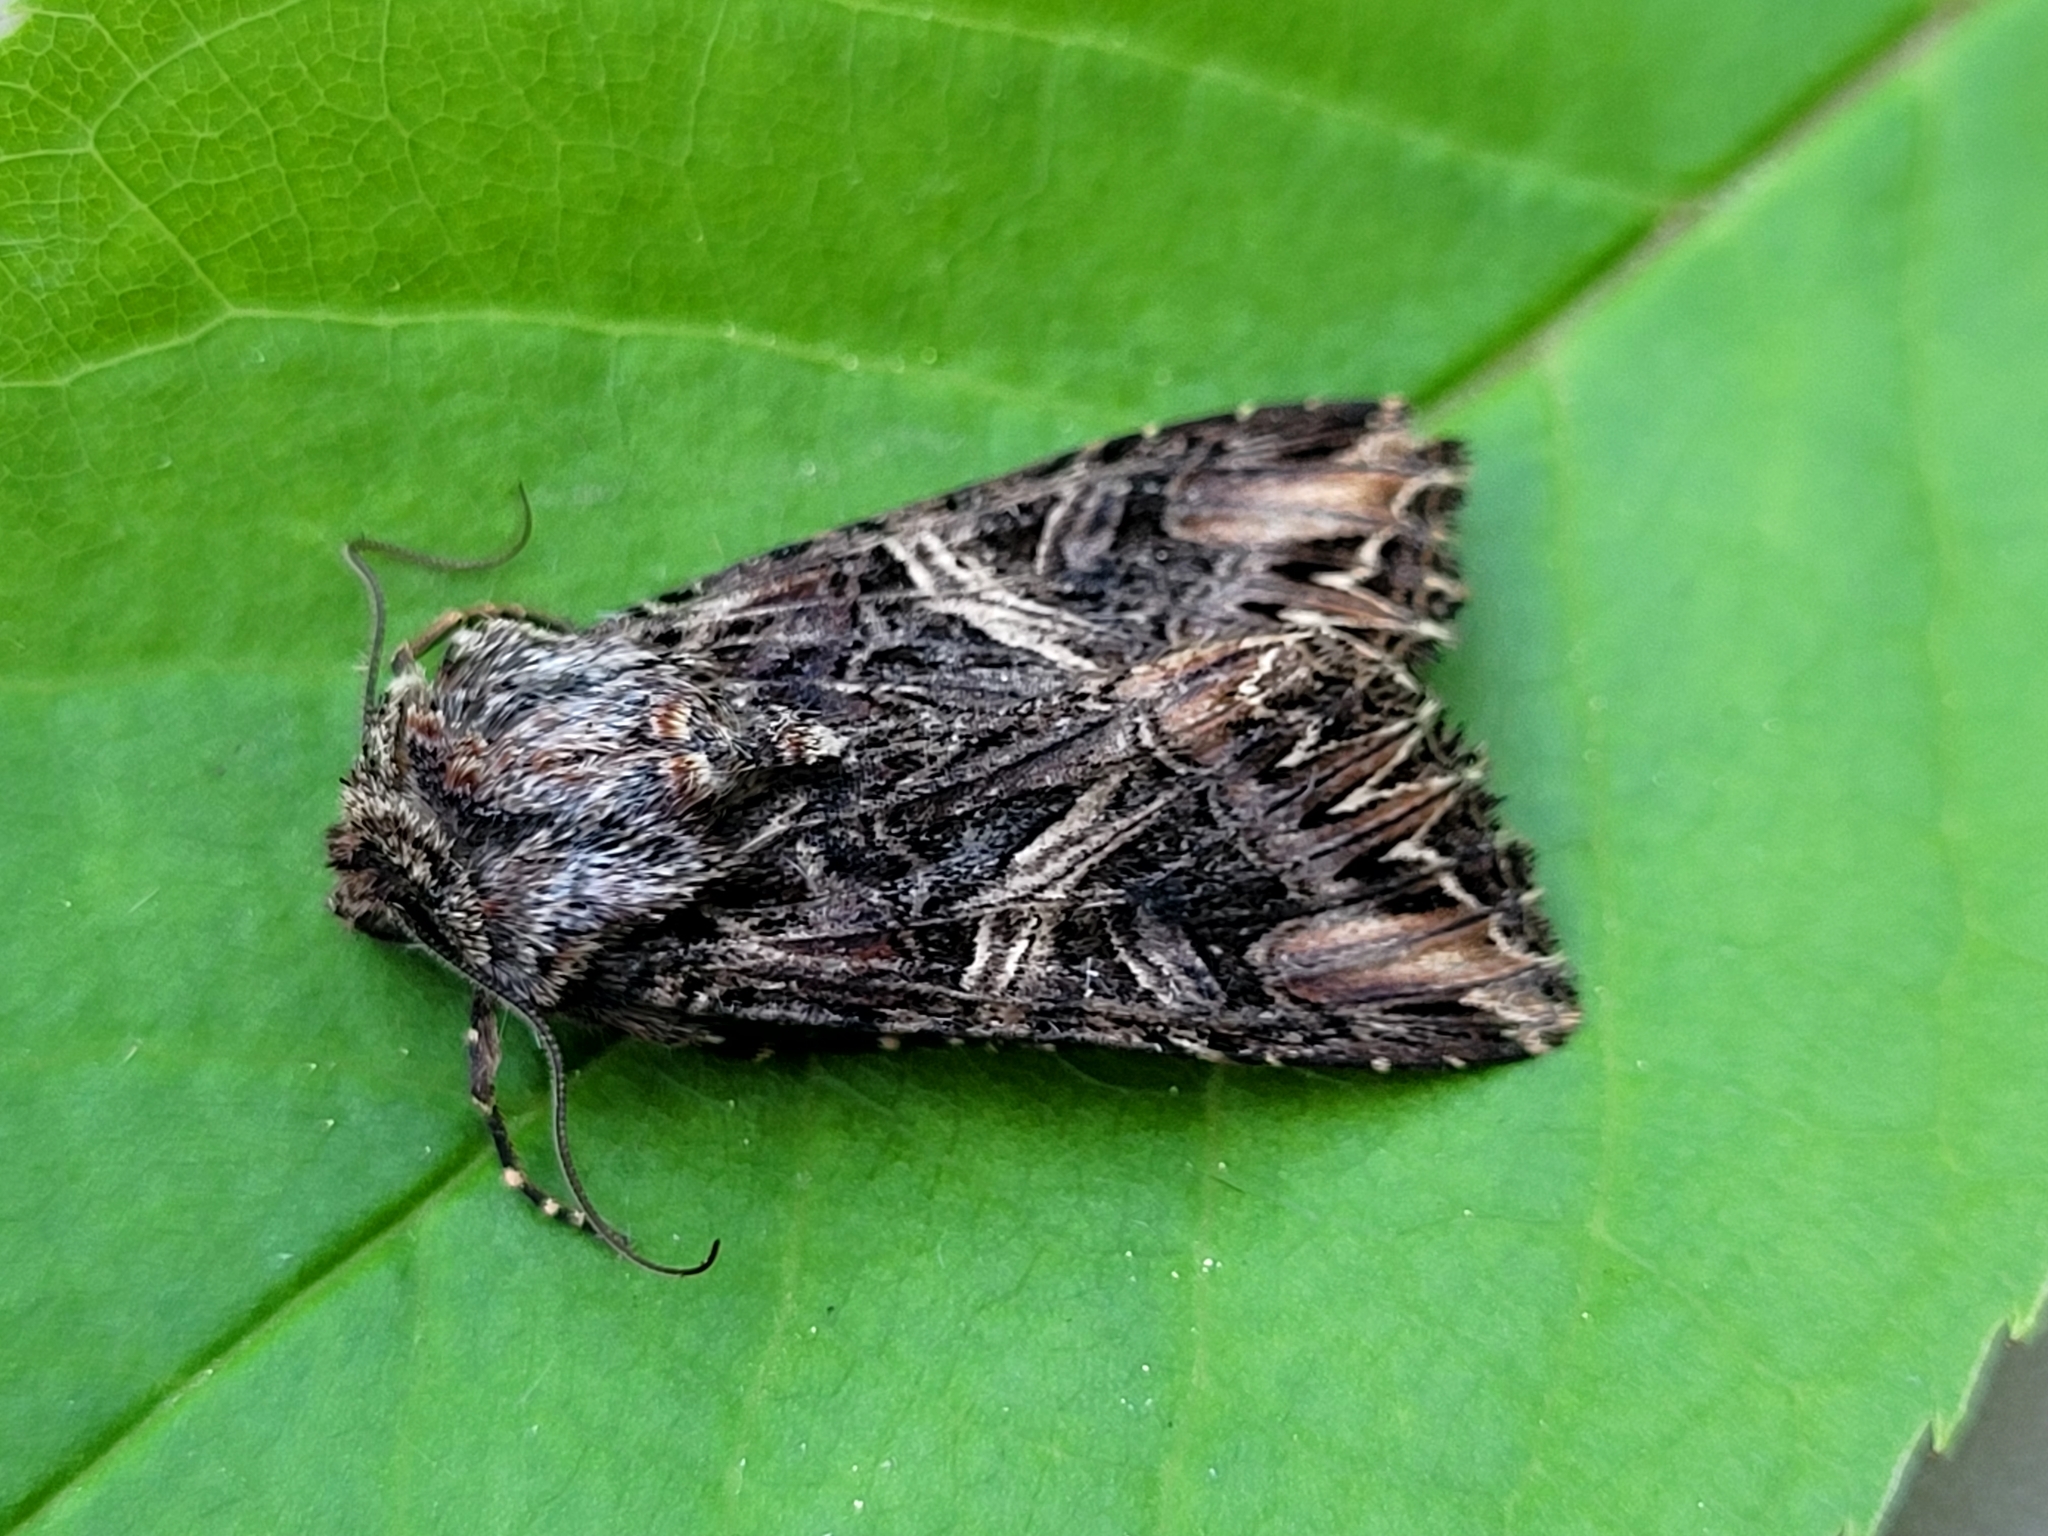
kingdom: Animalia
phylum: Arthropoda
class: Insecta
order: Lepidoptera
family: Noctuidae
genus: Anarta
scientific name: Anarta farnhami
